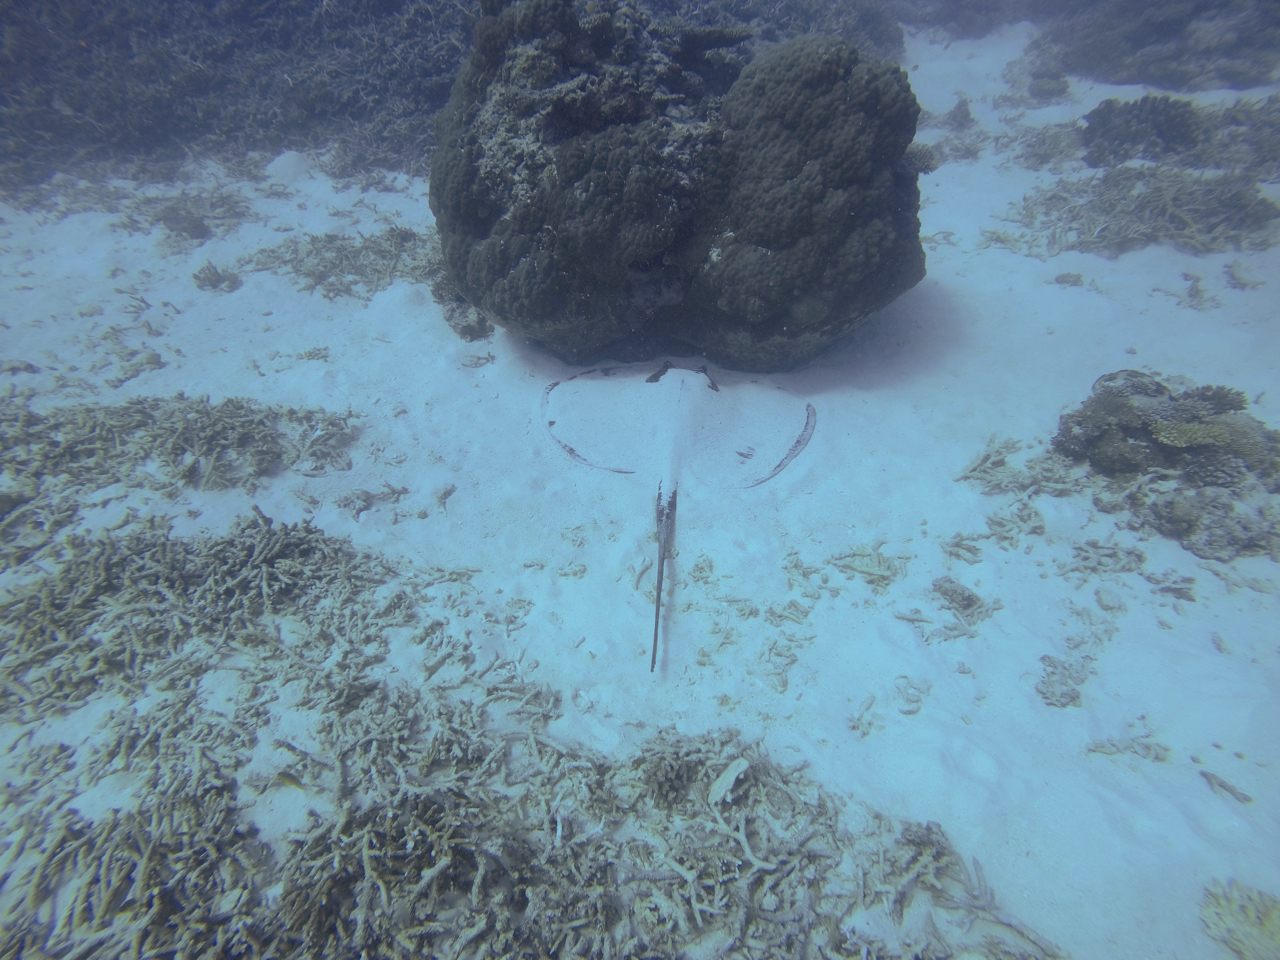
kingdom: Animalia
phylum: Chordata
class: Elasmobranchii
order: Myliobatiformes
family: Dasyatidae
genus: Taeniurops
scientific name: Taeniurops meyeni
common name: Black-blotched stingray
